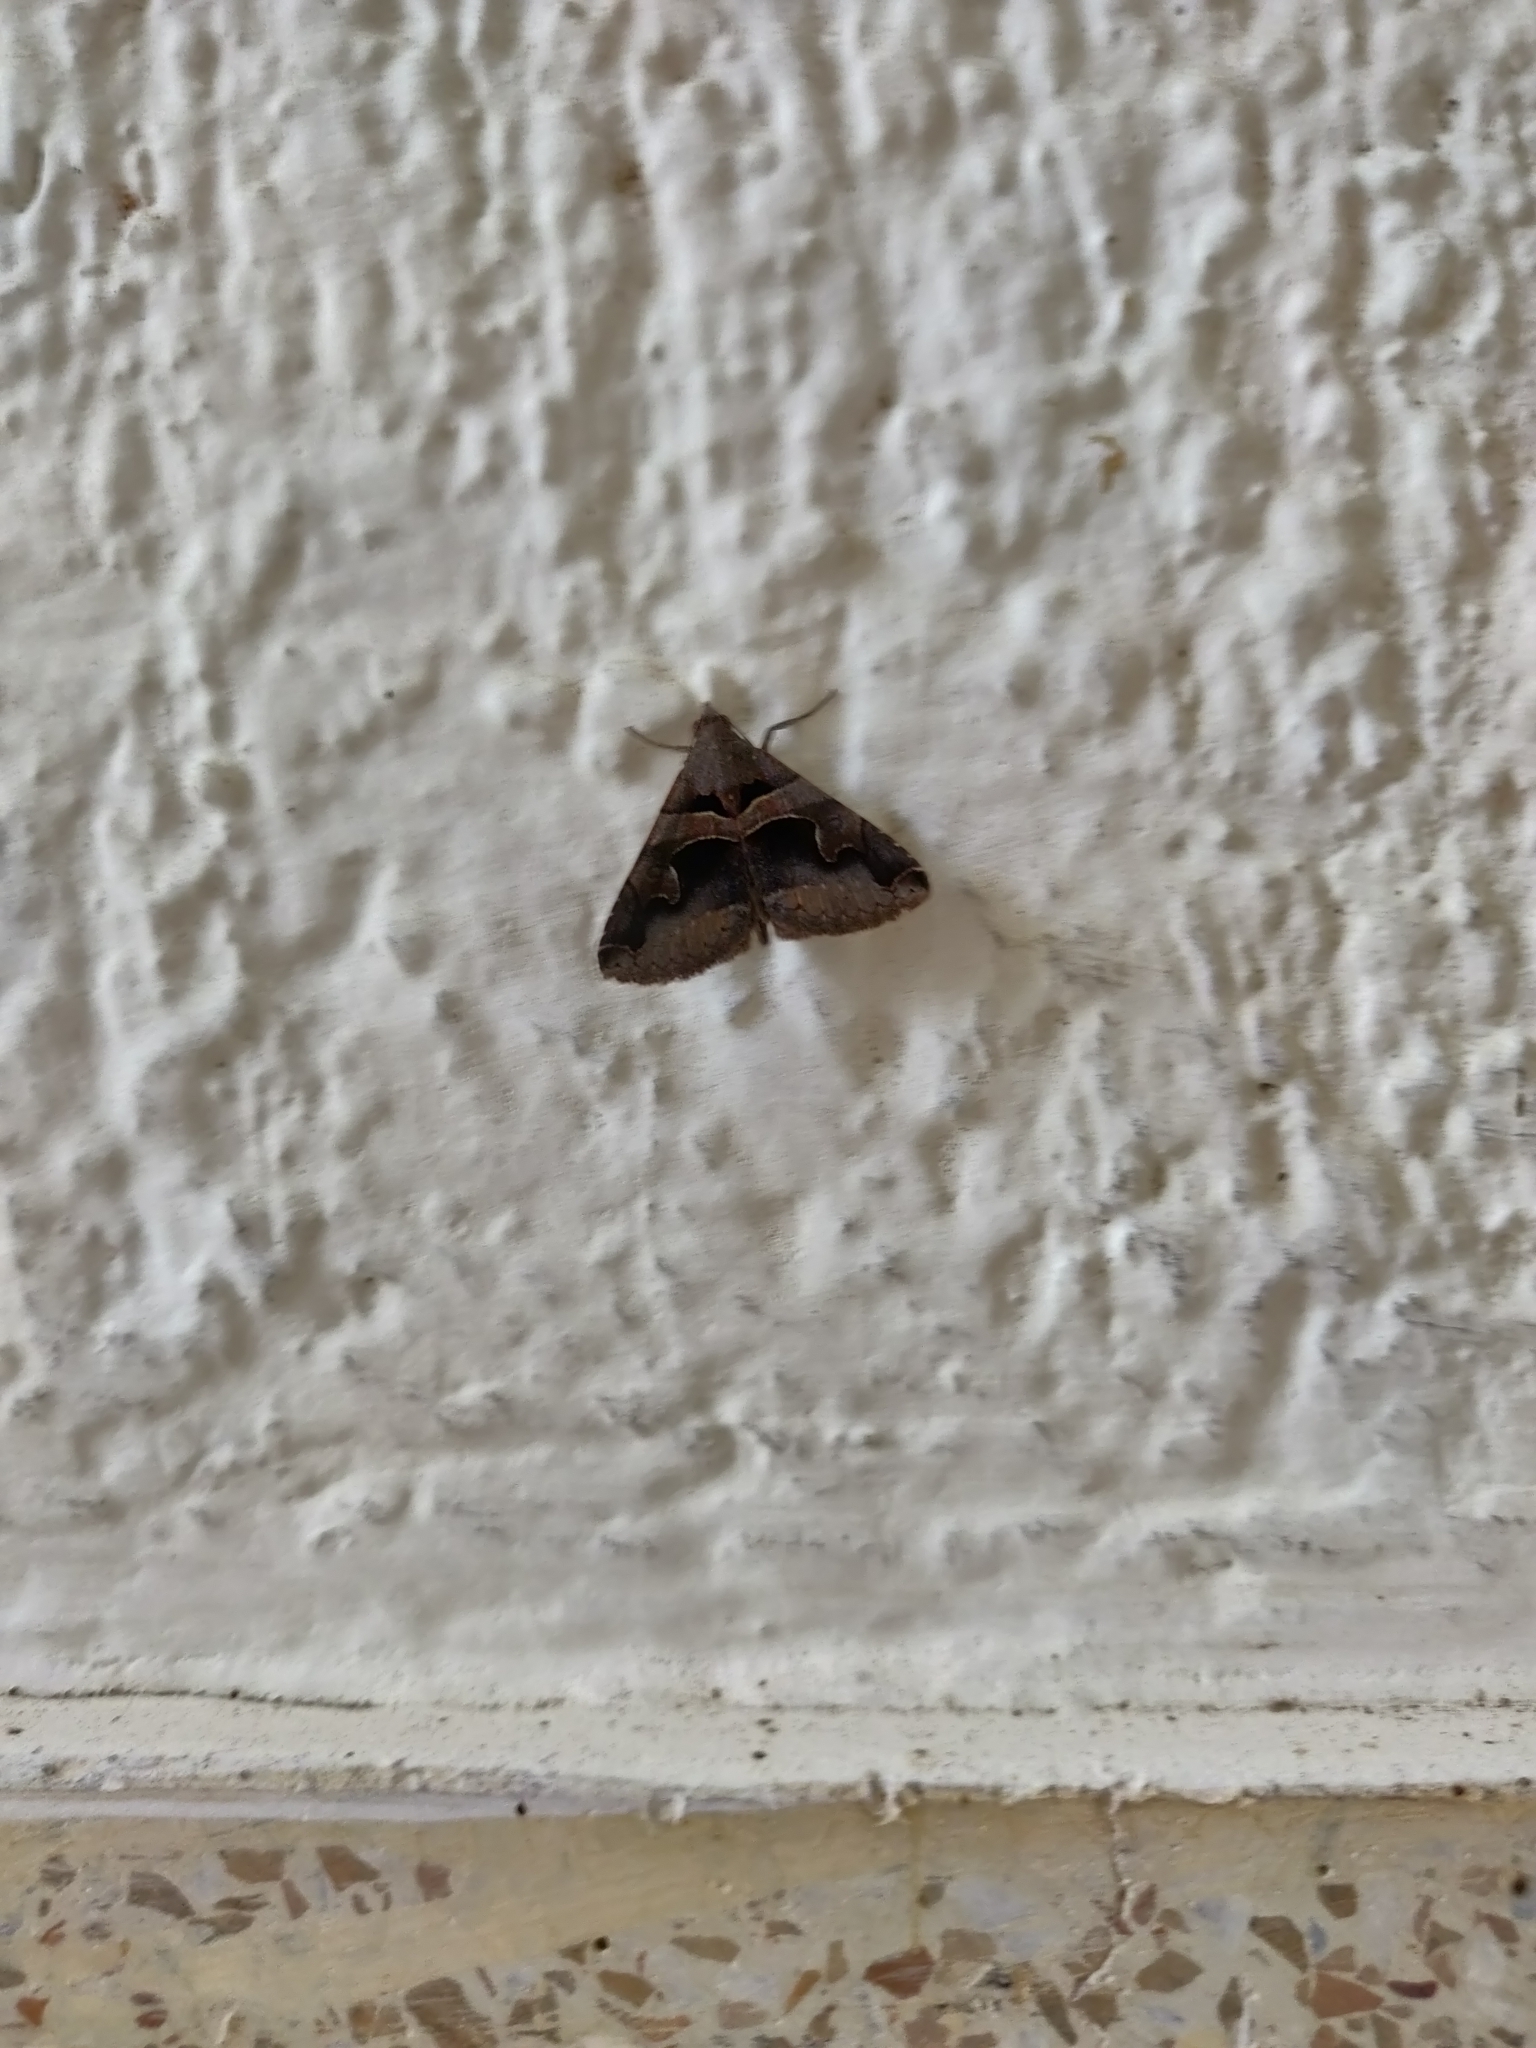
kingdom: Animalia
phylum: Arthropoda
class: Insecta
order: Lepidoptera
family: Erebidae
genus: Panula
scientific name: Panula inconstans
